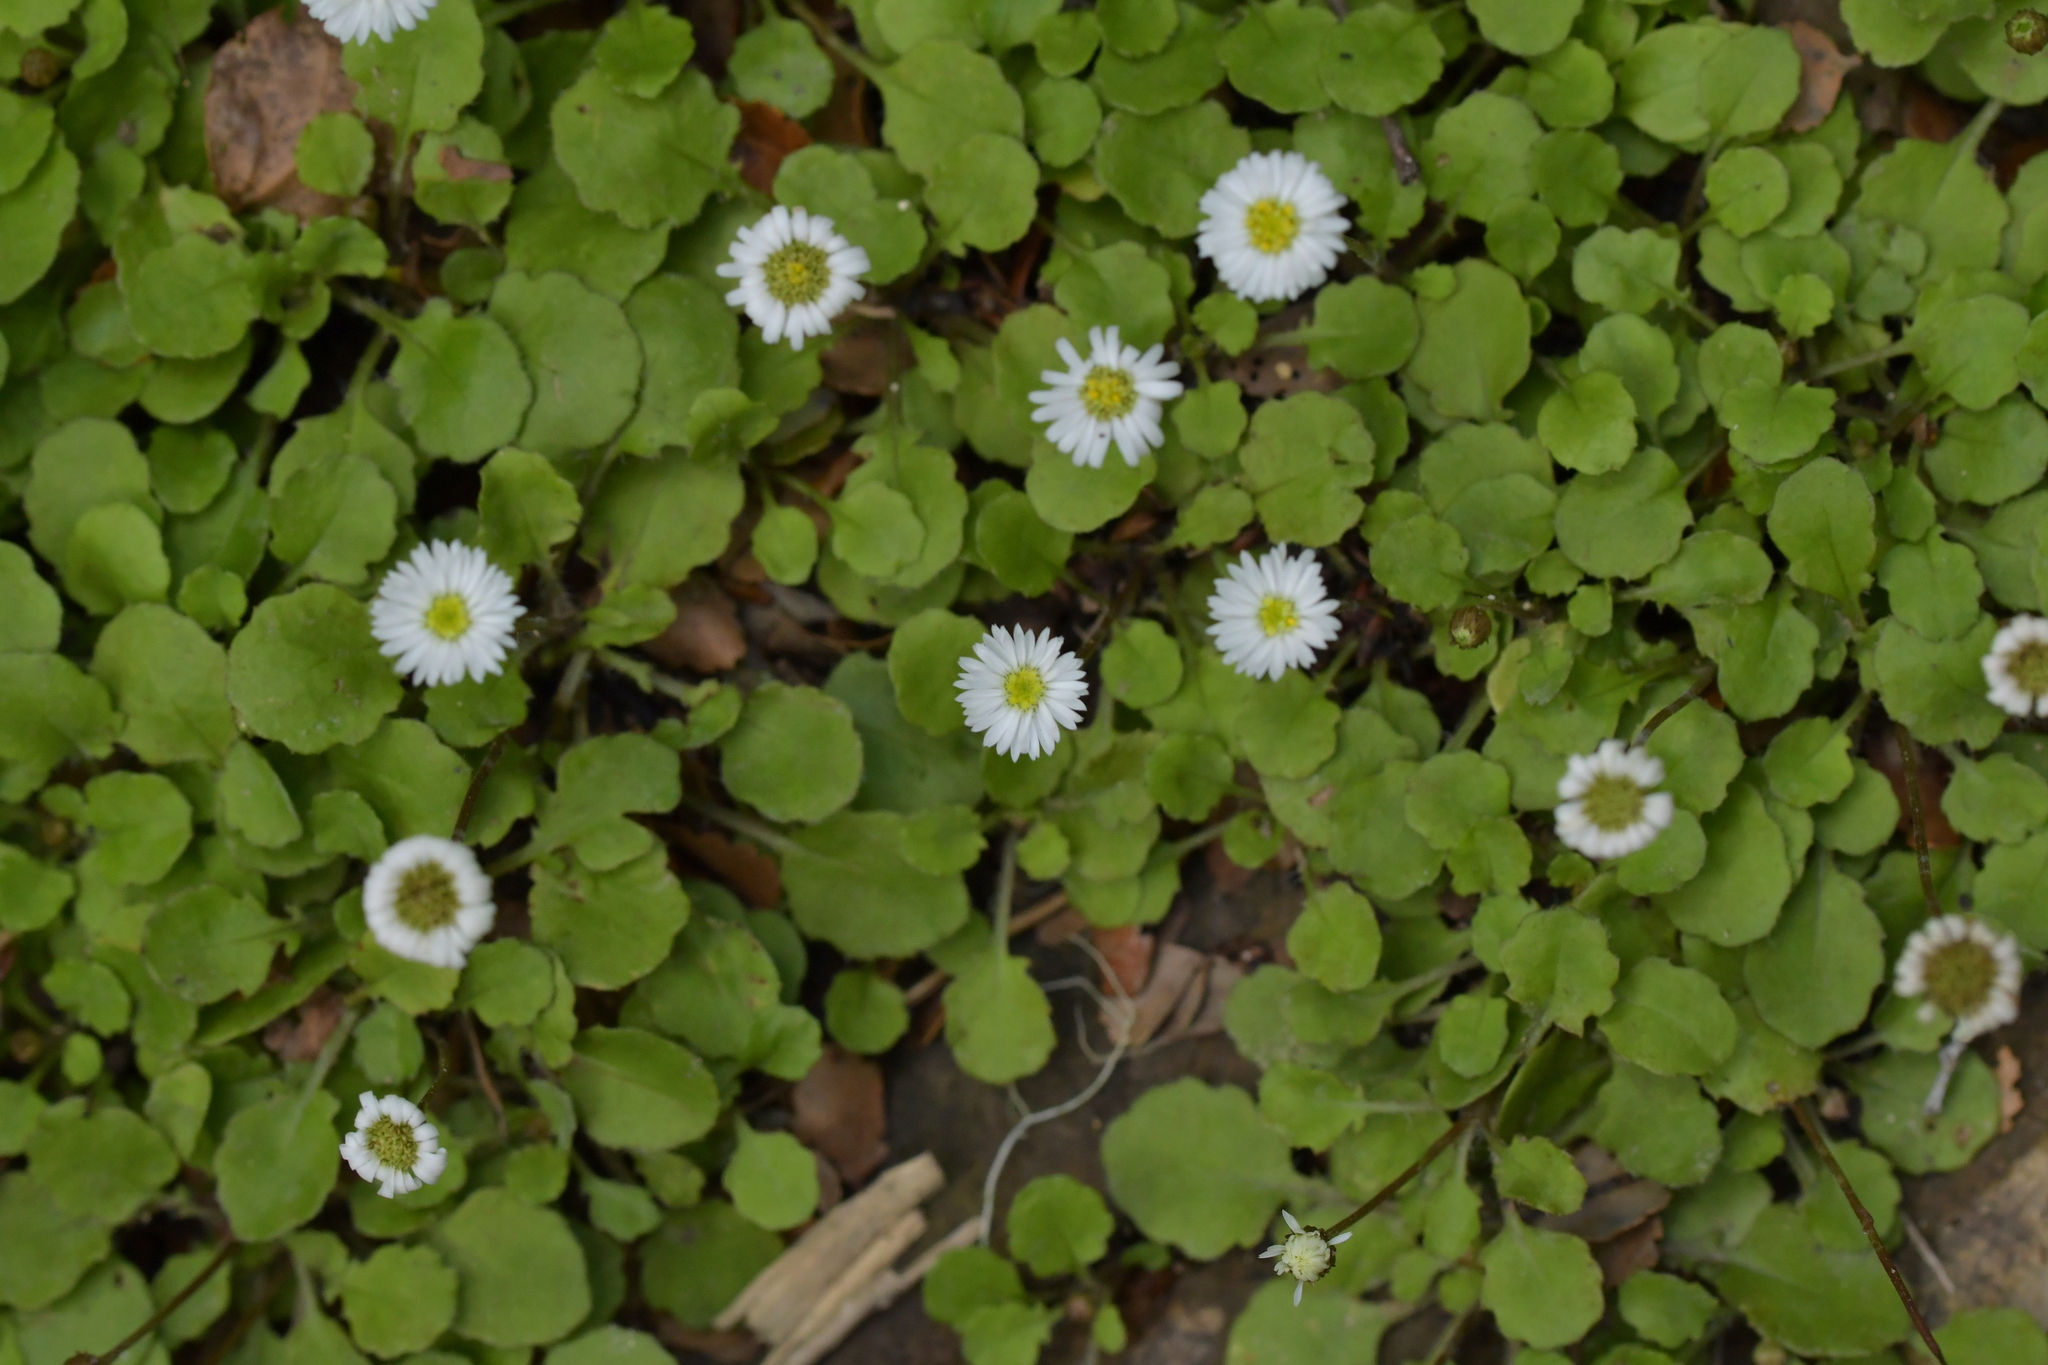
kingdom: Plantae
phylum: Tracheophyta
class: Magnoliopsida
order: Asterales
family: Asteraceae
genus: Lagenophora
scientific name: Lagenophora pumila
